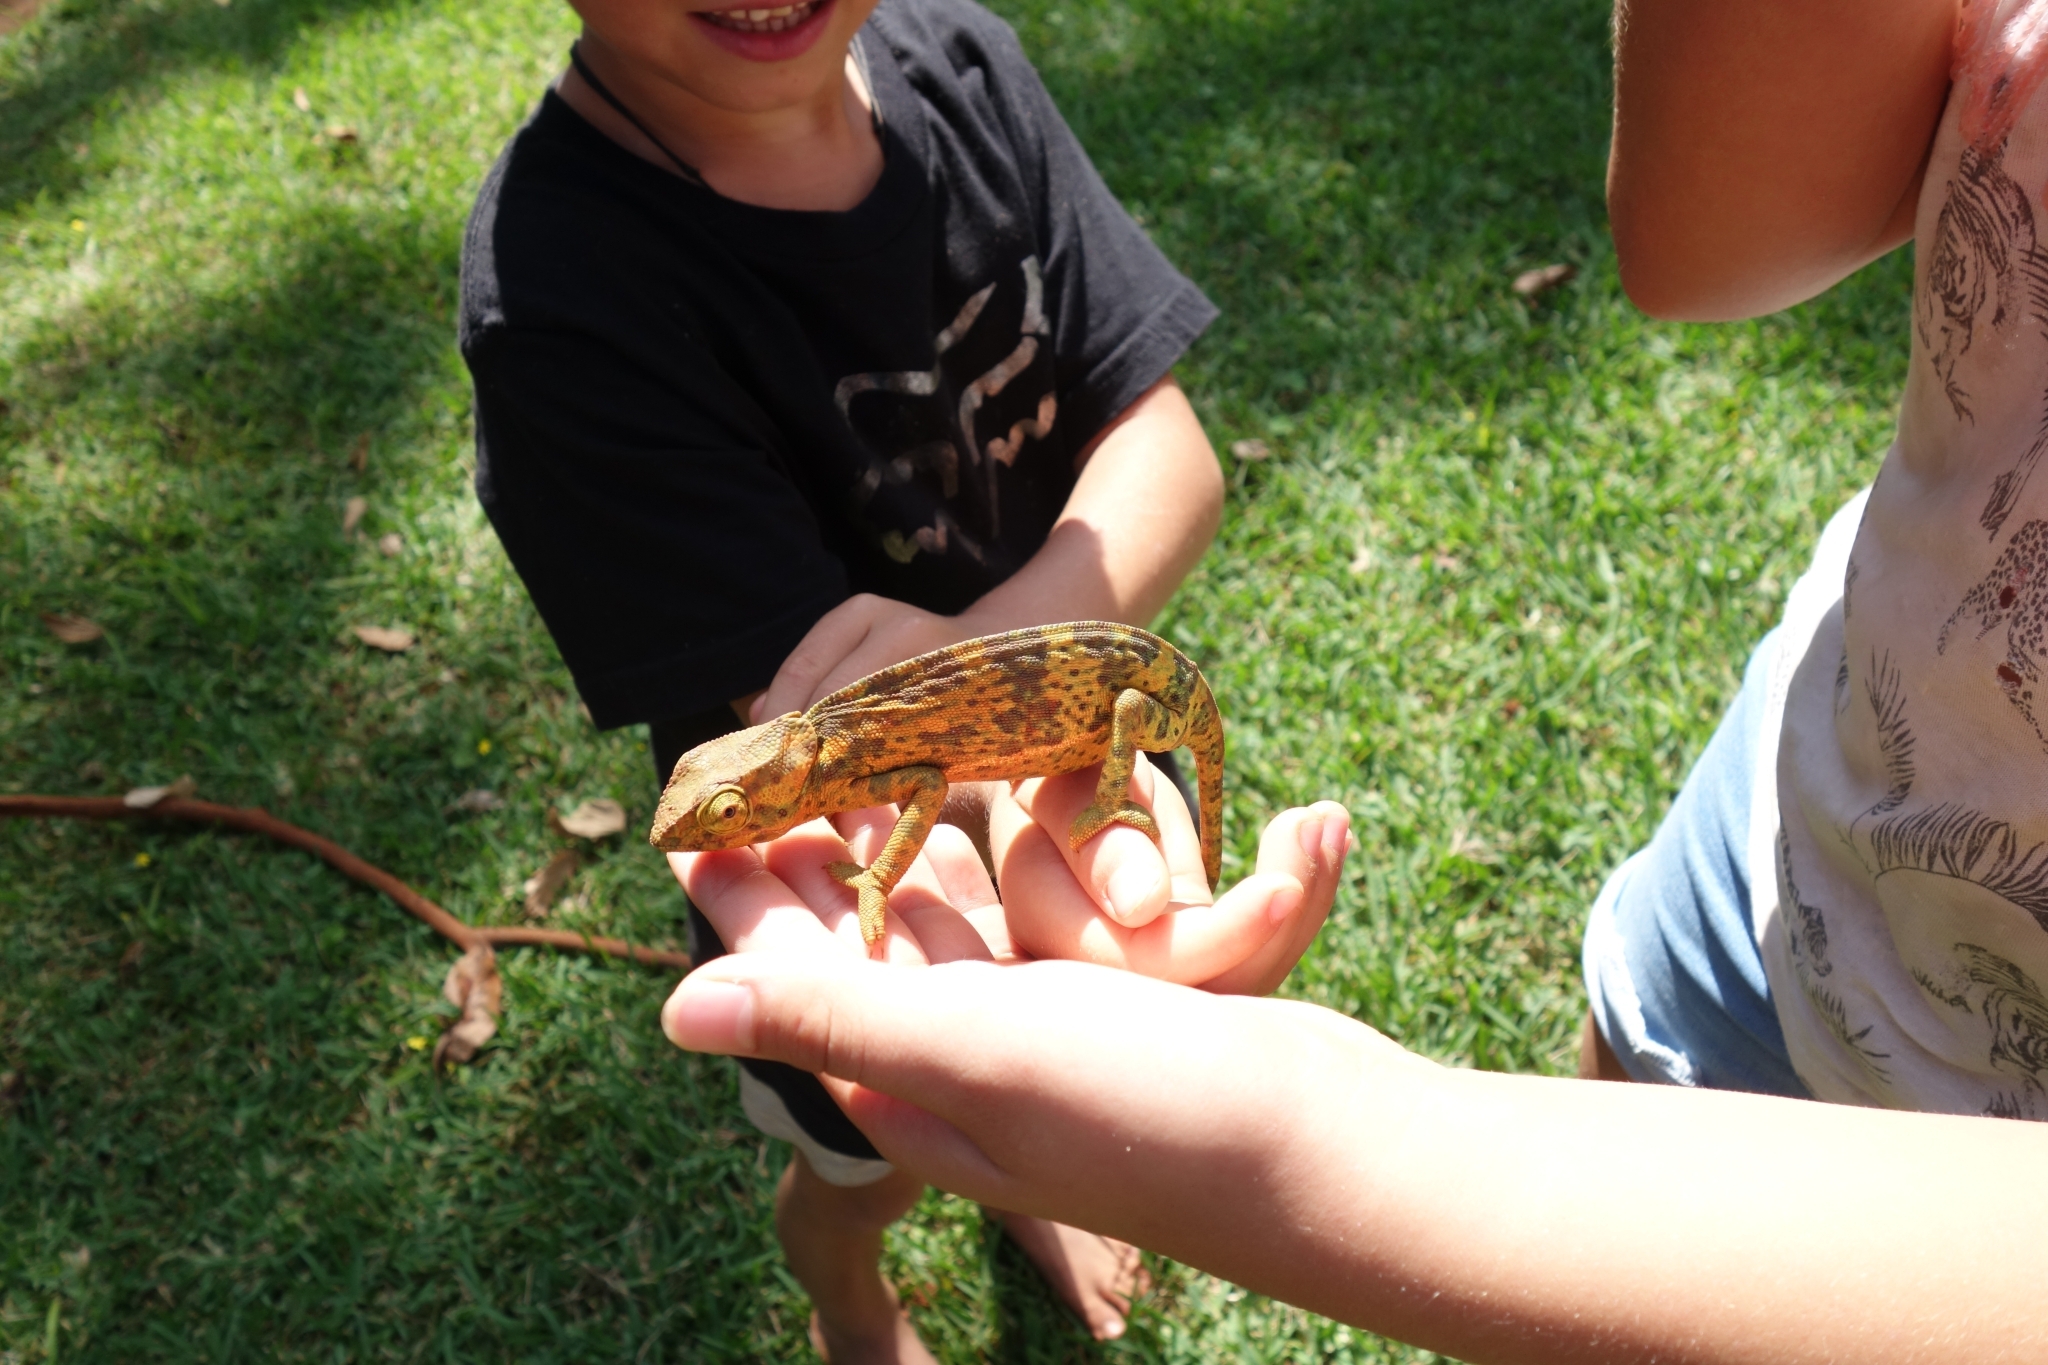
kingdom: Animalia
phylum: Chordata
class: Squamata
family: Chamaeleonidae
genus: Chamaeleo
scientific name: Chamaeleo dilepis
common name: Flapneck chameleon
